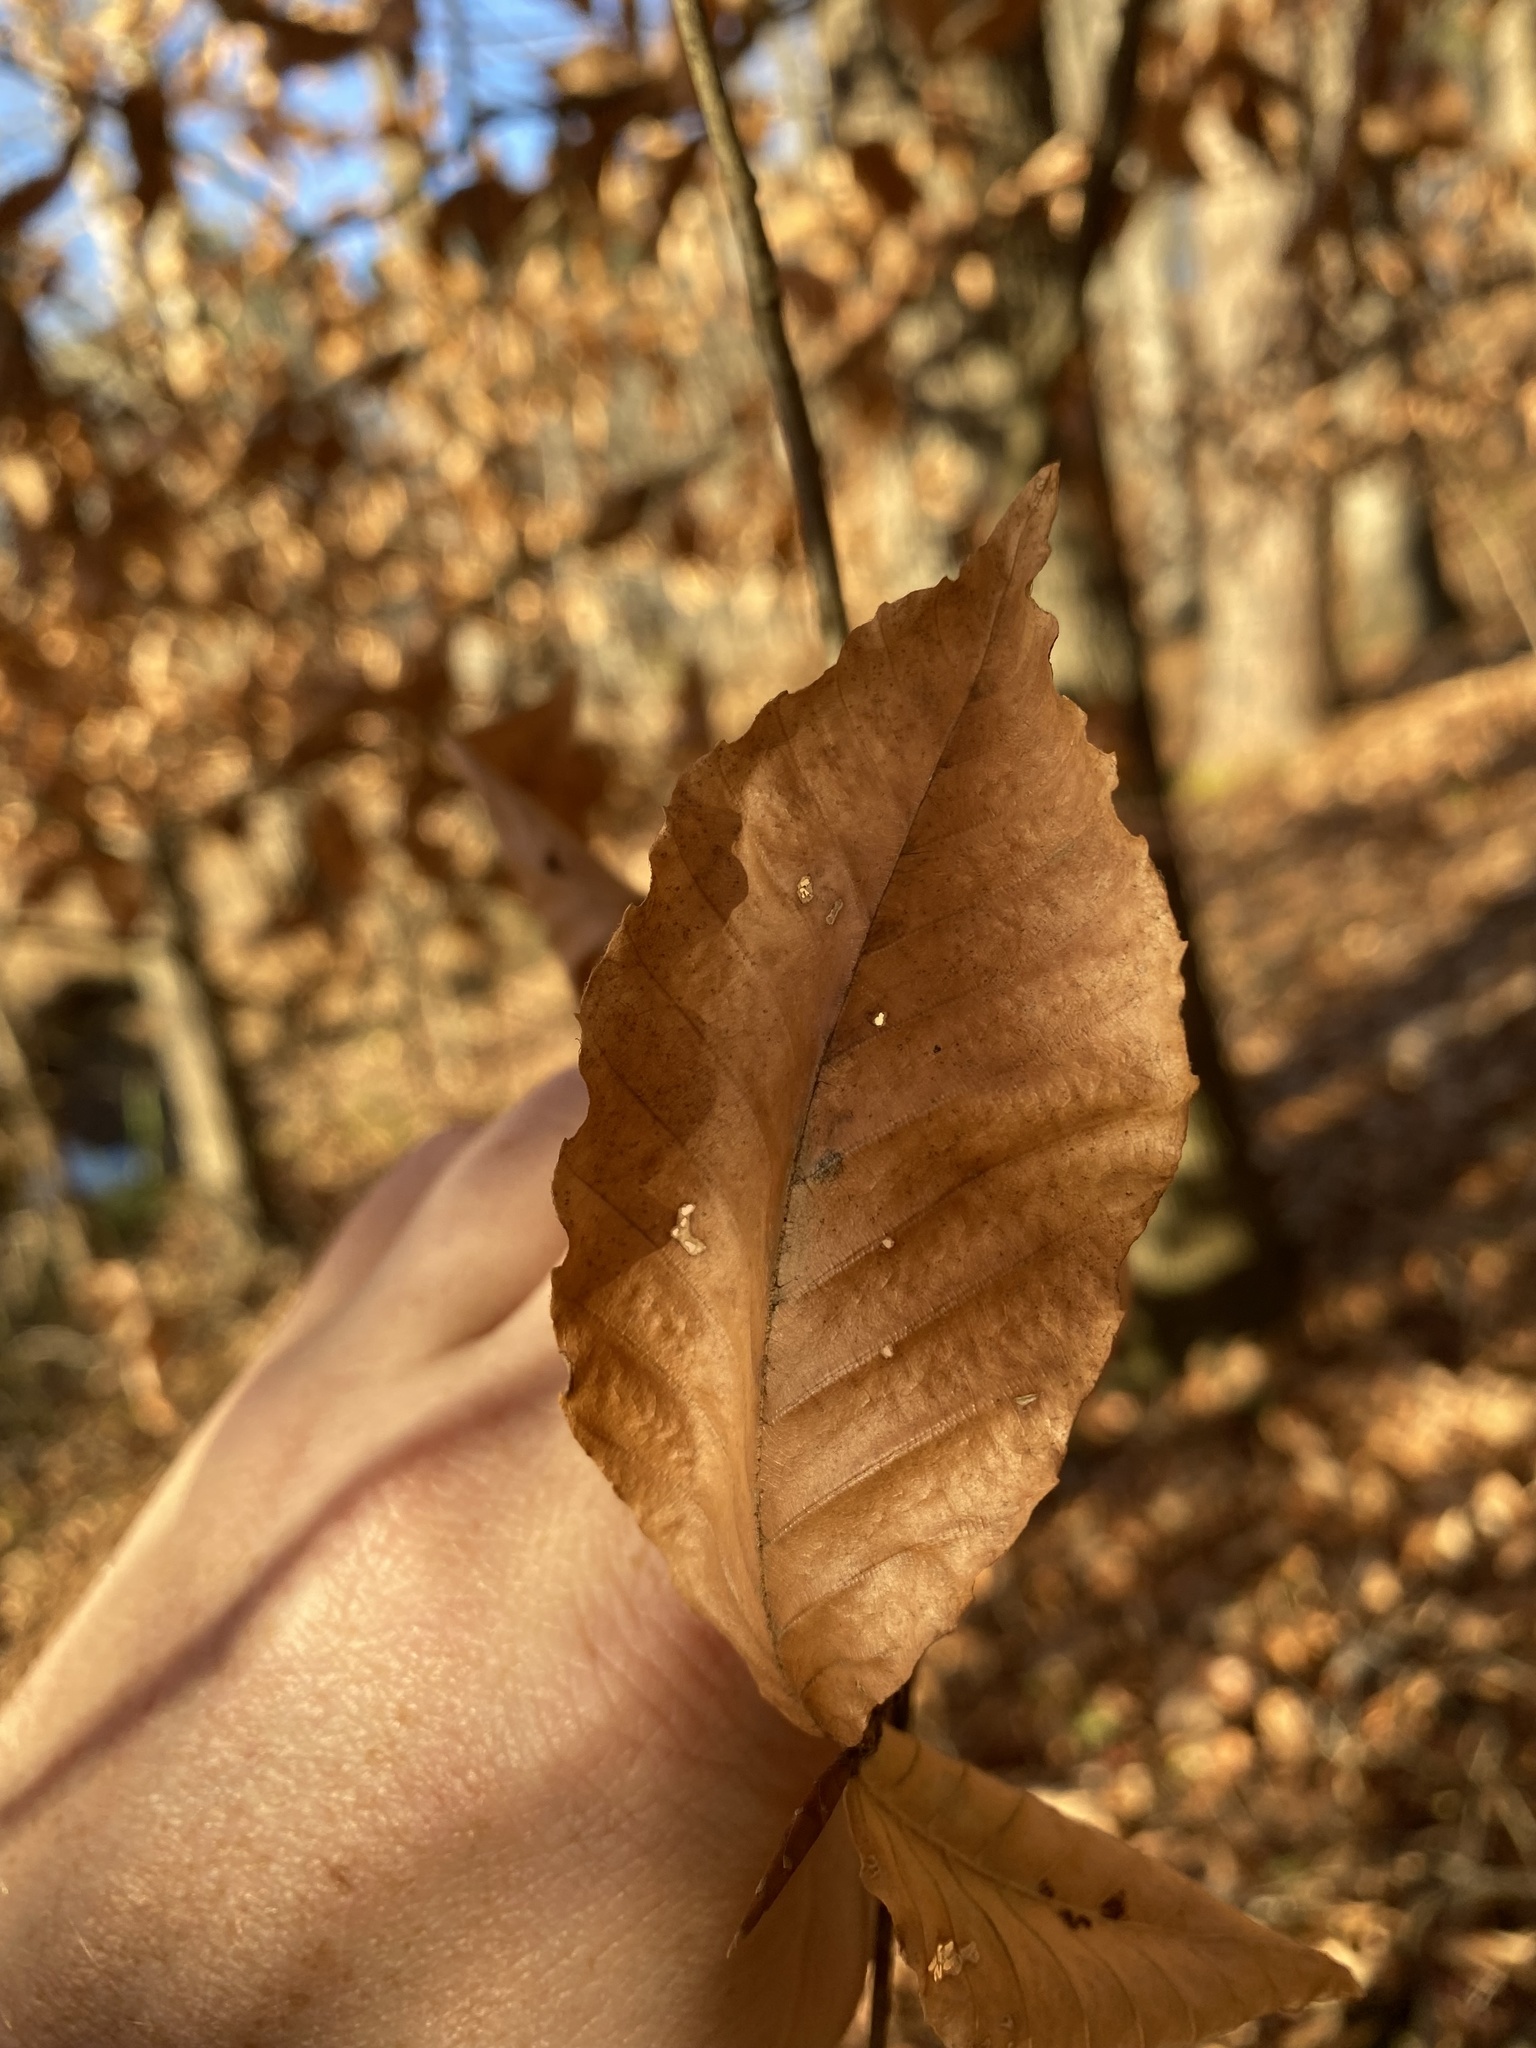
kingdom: Plantae
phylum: Tracheophyta
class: Magnoliopsida
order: Fagales
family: Fagaceae
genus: Fagus
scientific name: Fagus grandifolia
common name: American beech
